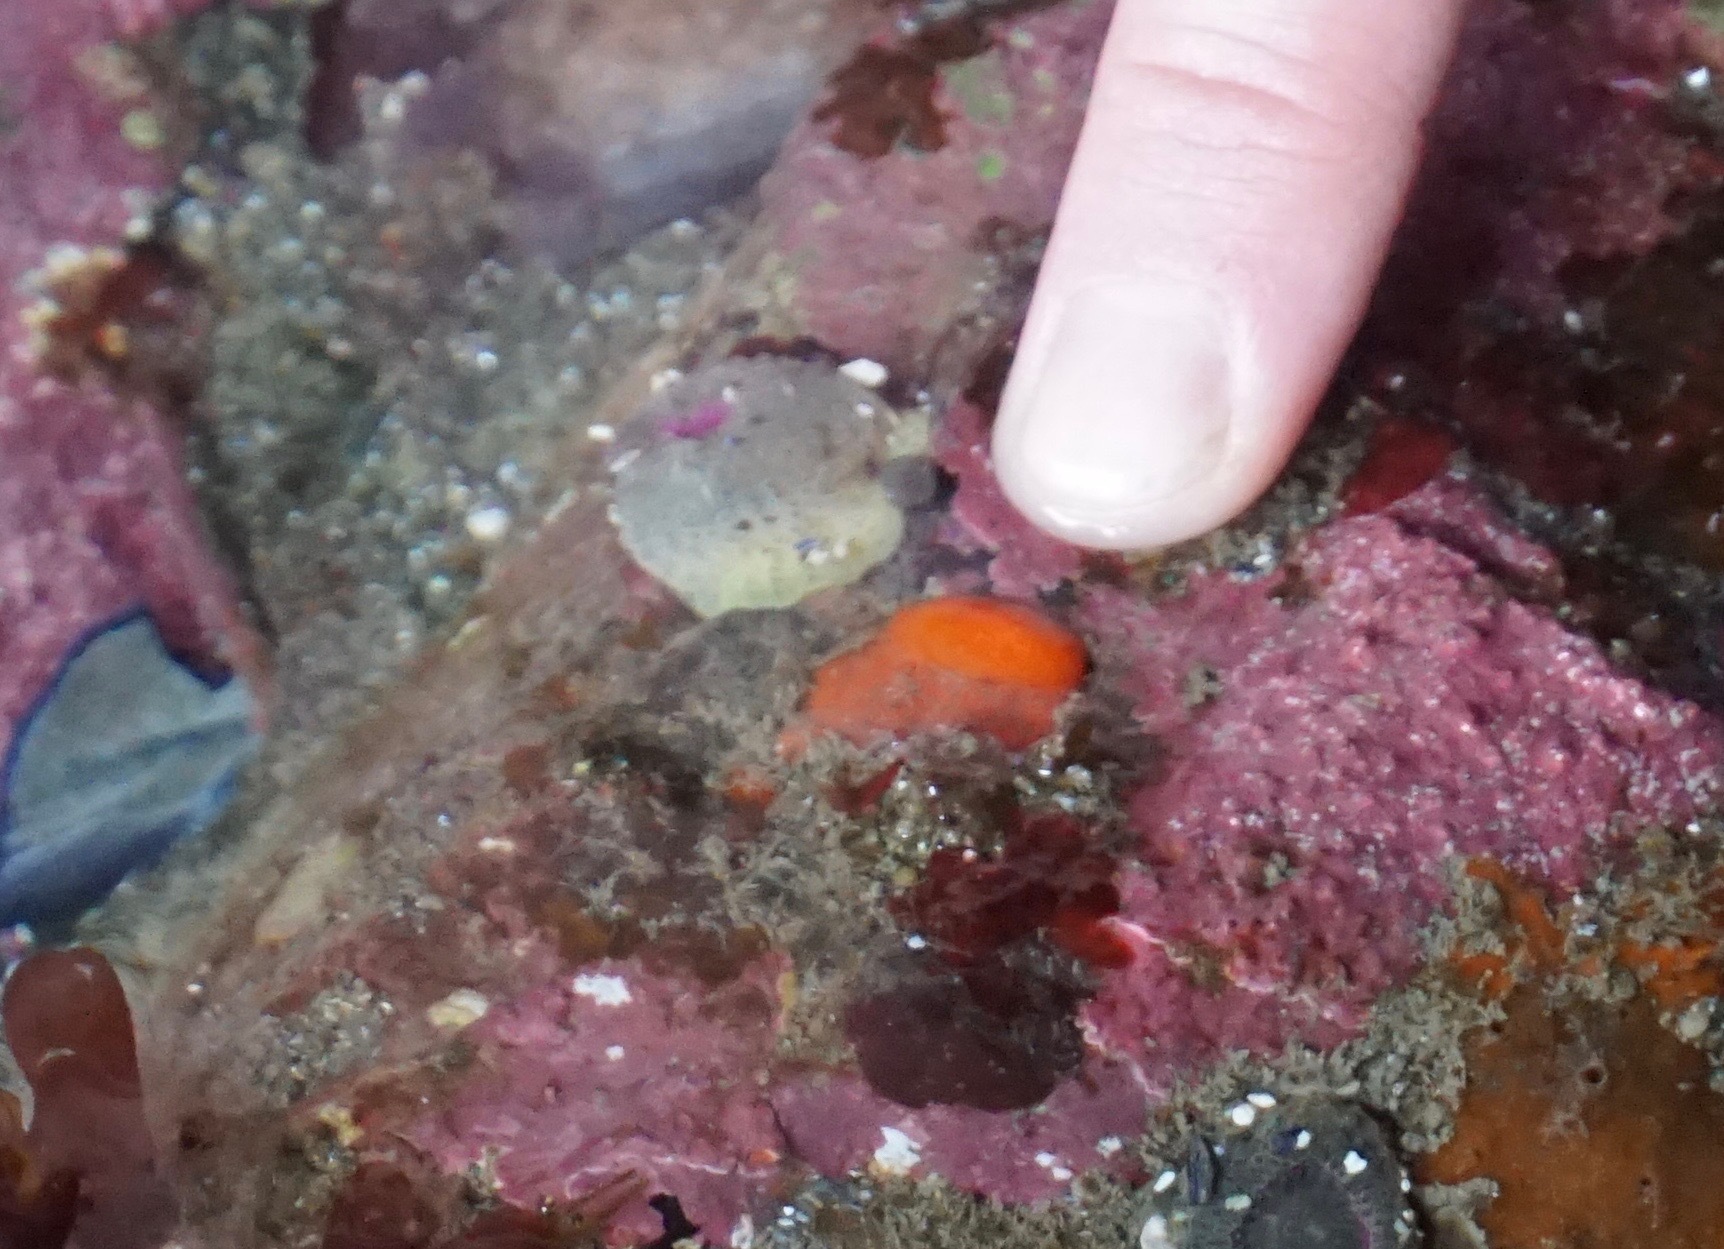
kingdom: Animalia
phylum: Mollusca
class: Gastropoda
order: Nudibranchia
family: Discodorididae
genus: Rostanga
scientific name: Rostanga pulchra
